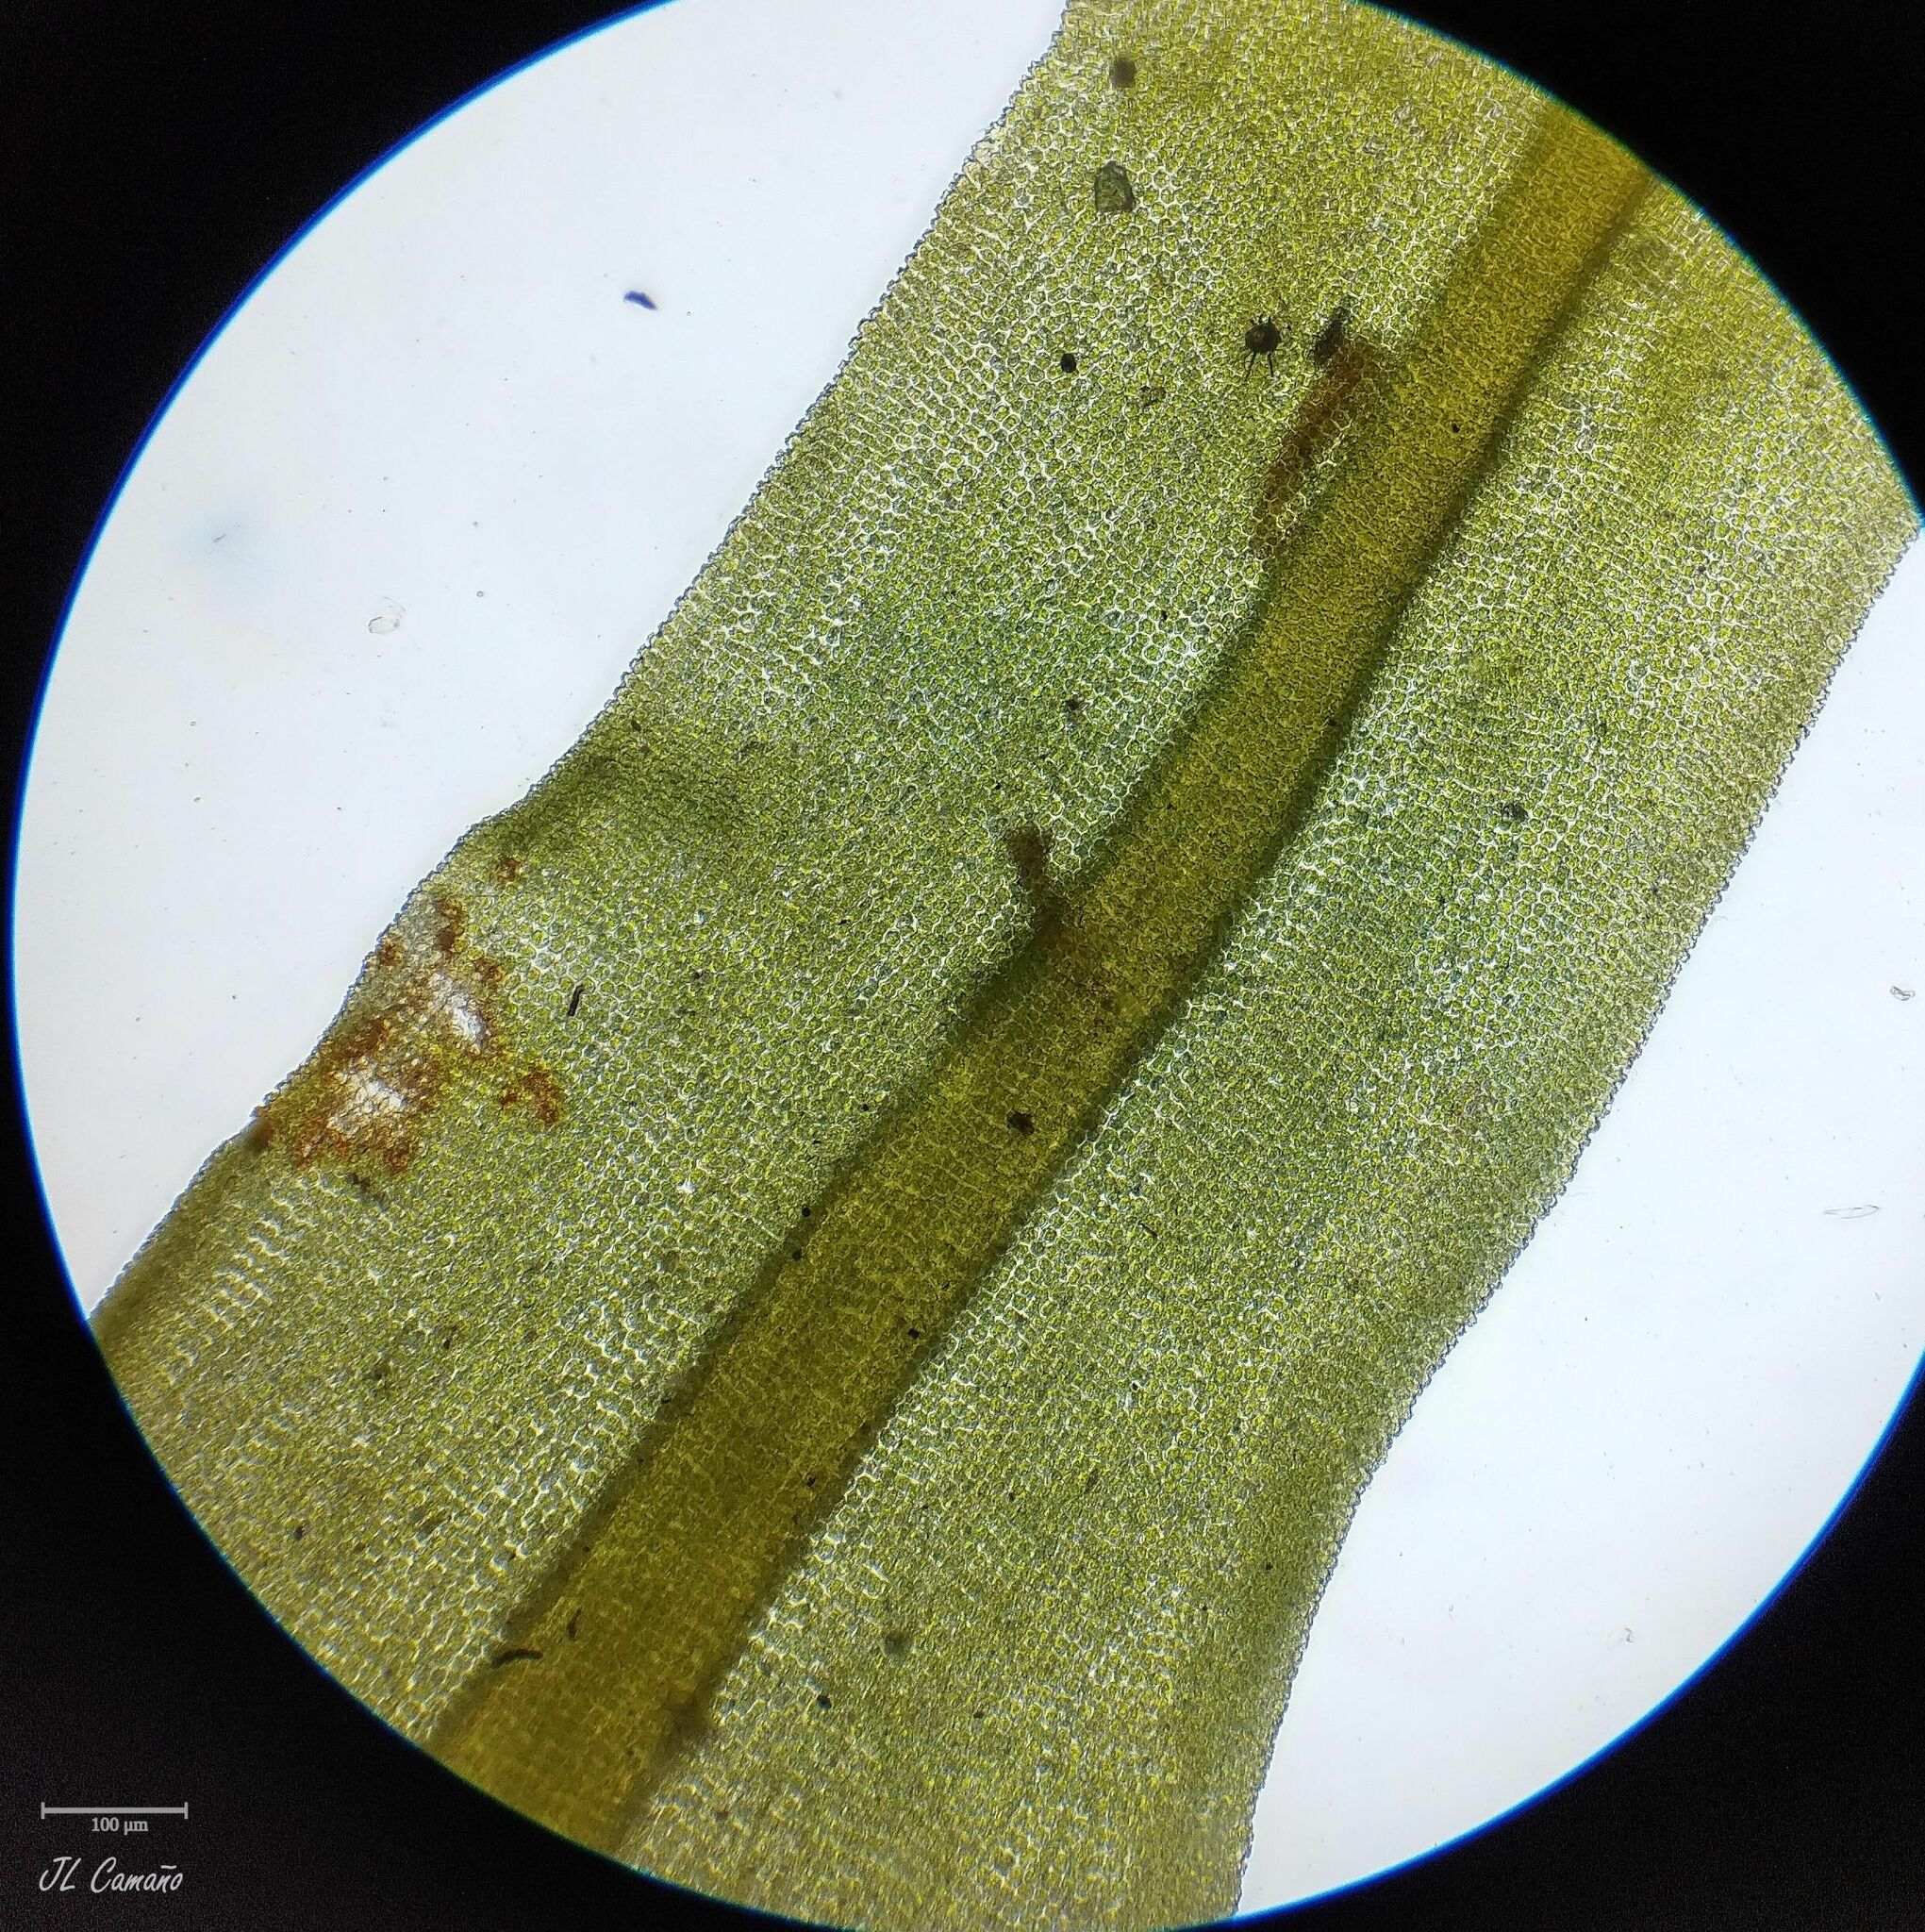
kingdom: Plantae
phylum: Bryophyta
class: Bryopsida
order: Encalyptales
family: Encalyptaceae
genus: Encalypta
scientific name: Encalypta streptocarpa
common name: Spiral extinguisher-moss
